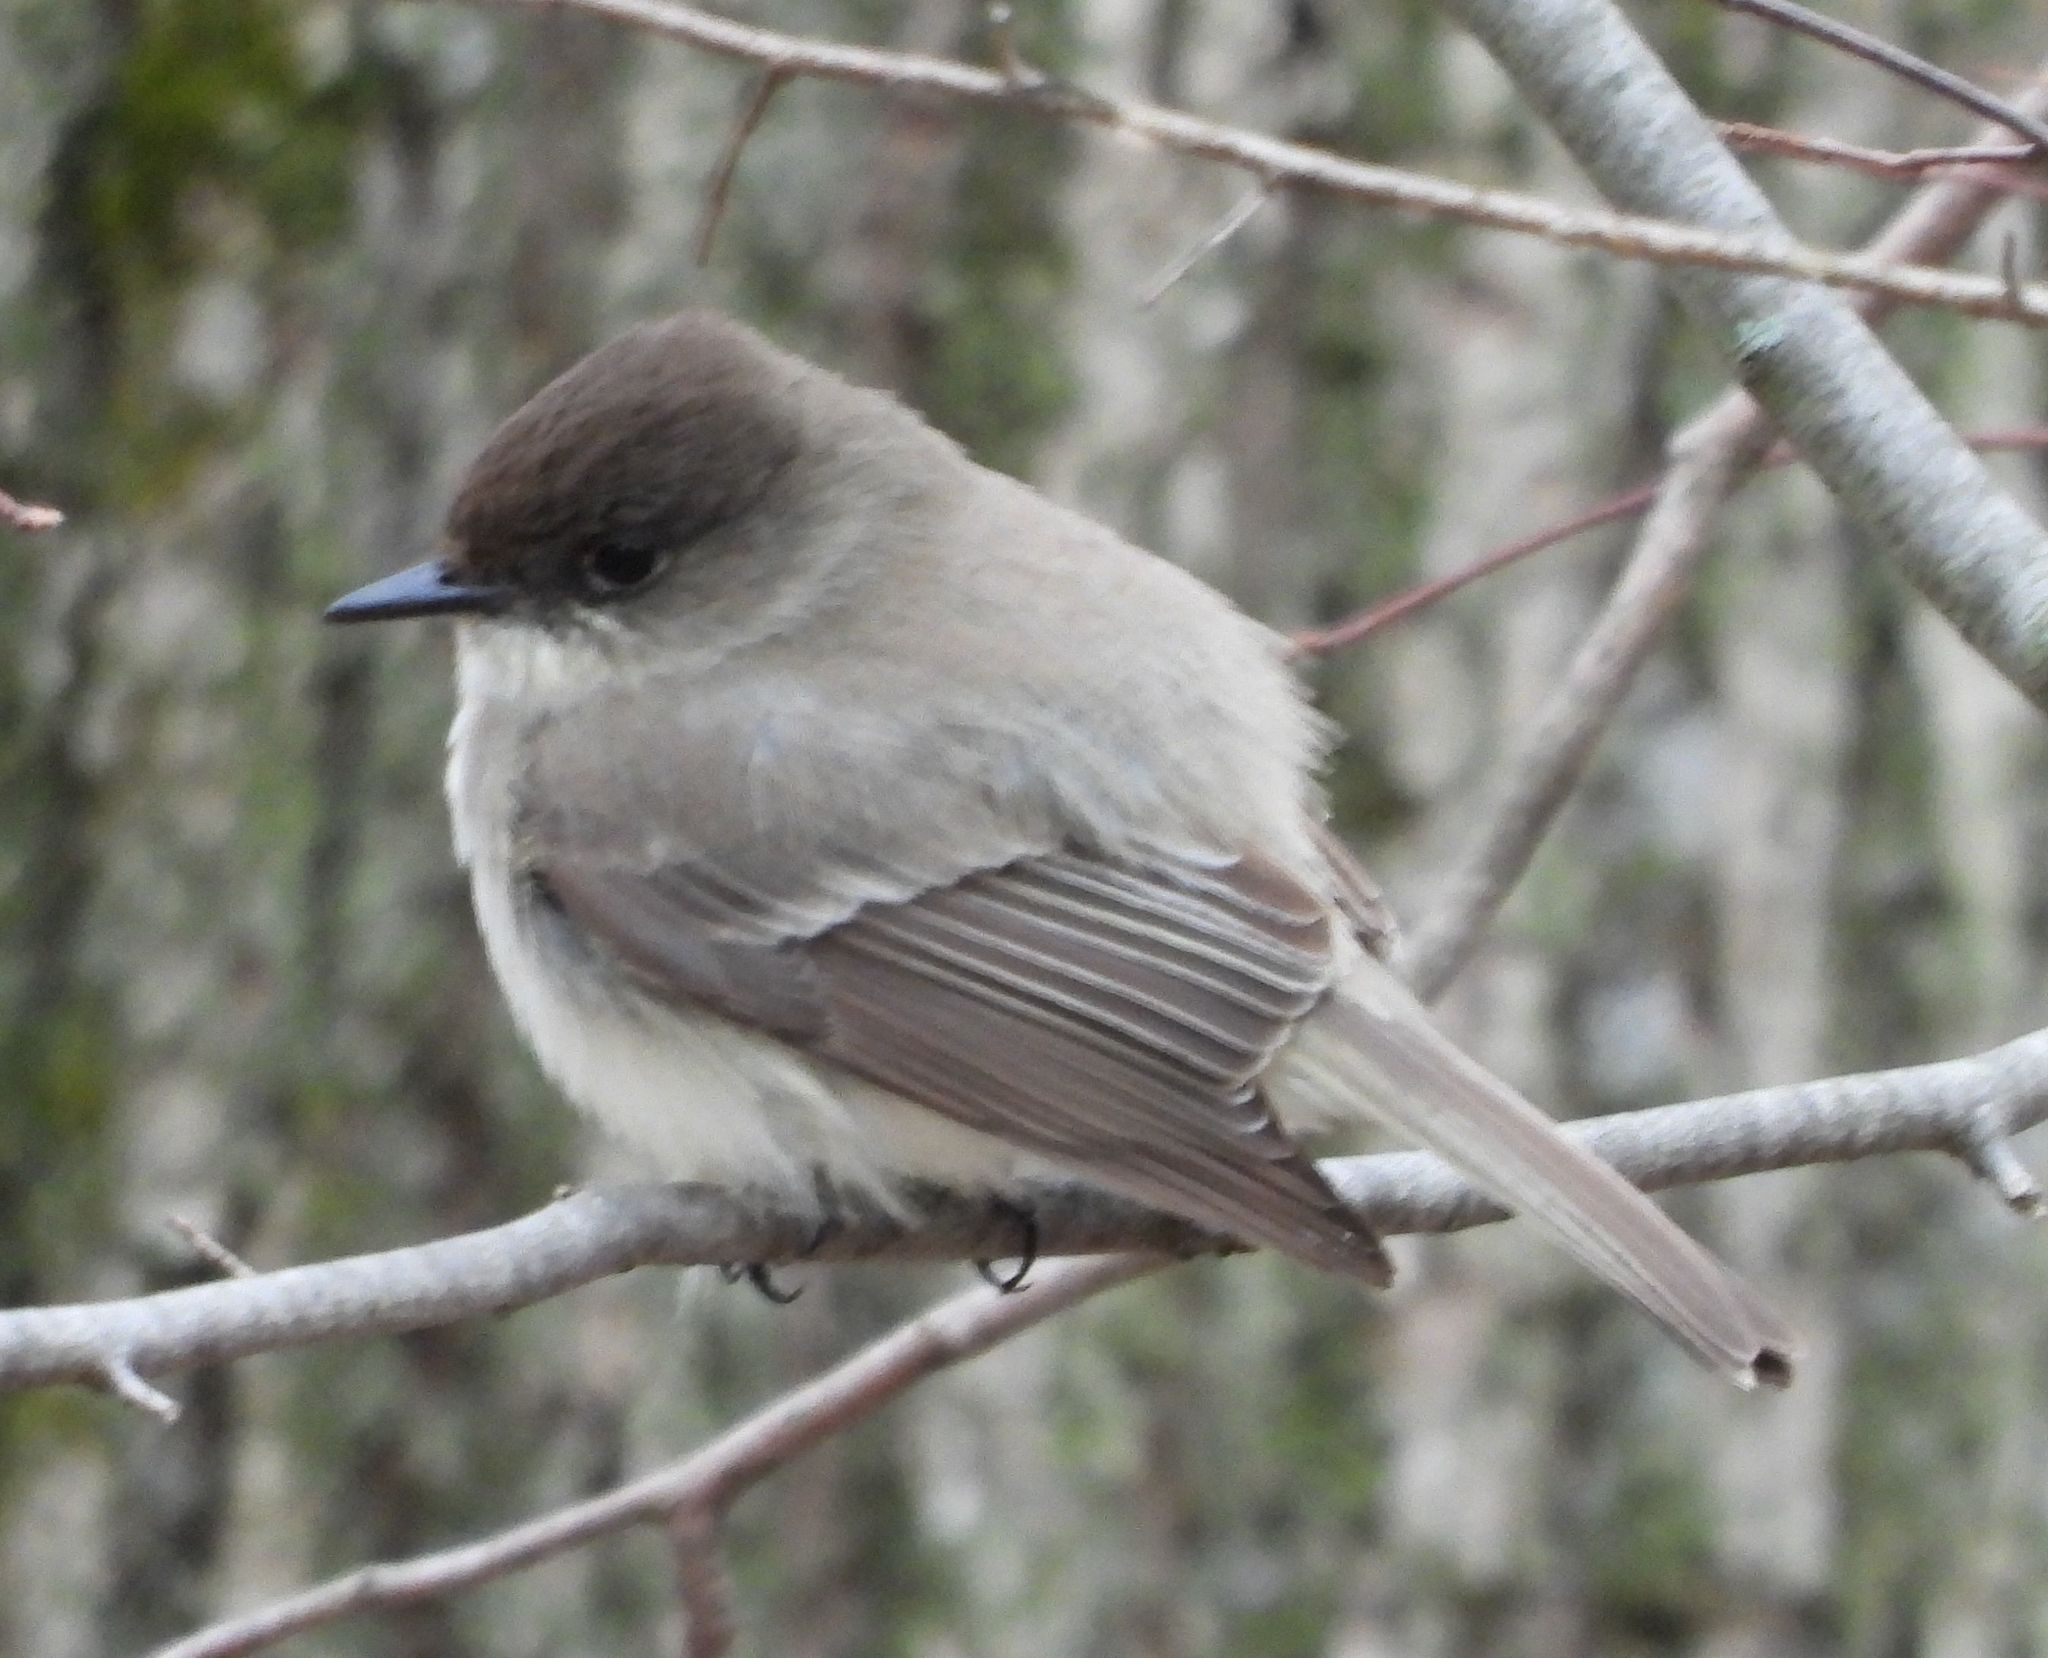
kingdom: Animalia
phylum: Chordata
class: Aves
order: Passeriformes
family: Tyrannidae
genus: Sayornis
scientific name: Sayornis phoebe
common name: Eastern phoebe
